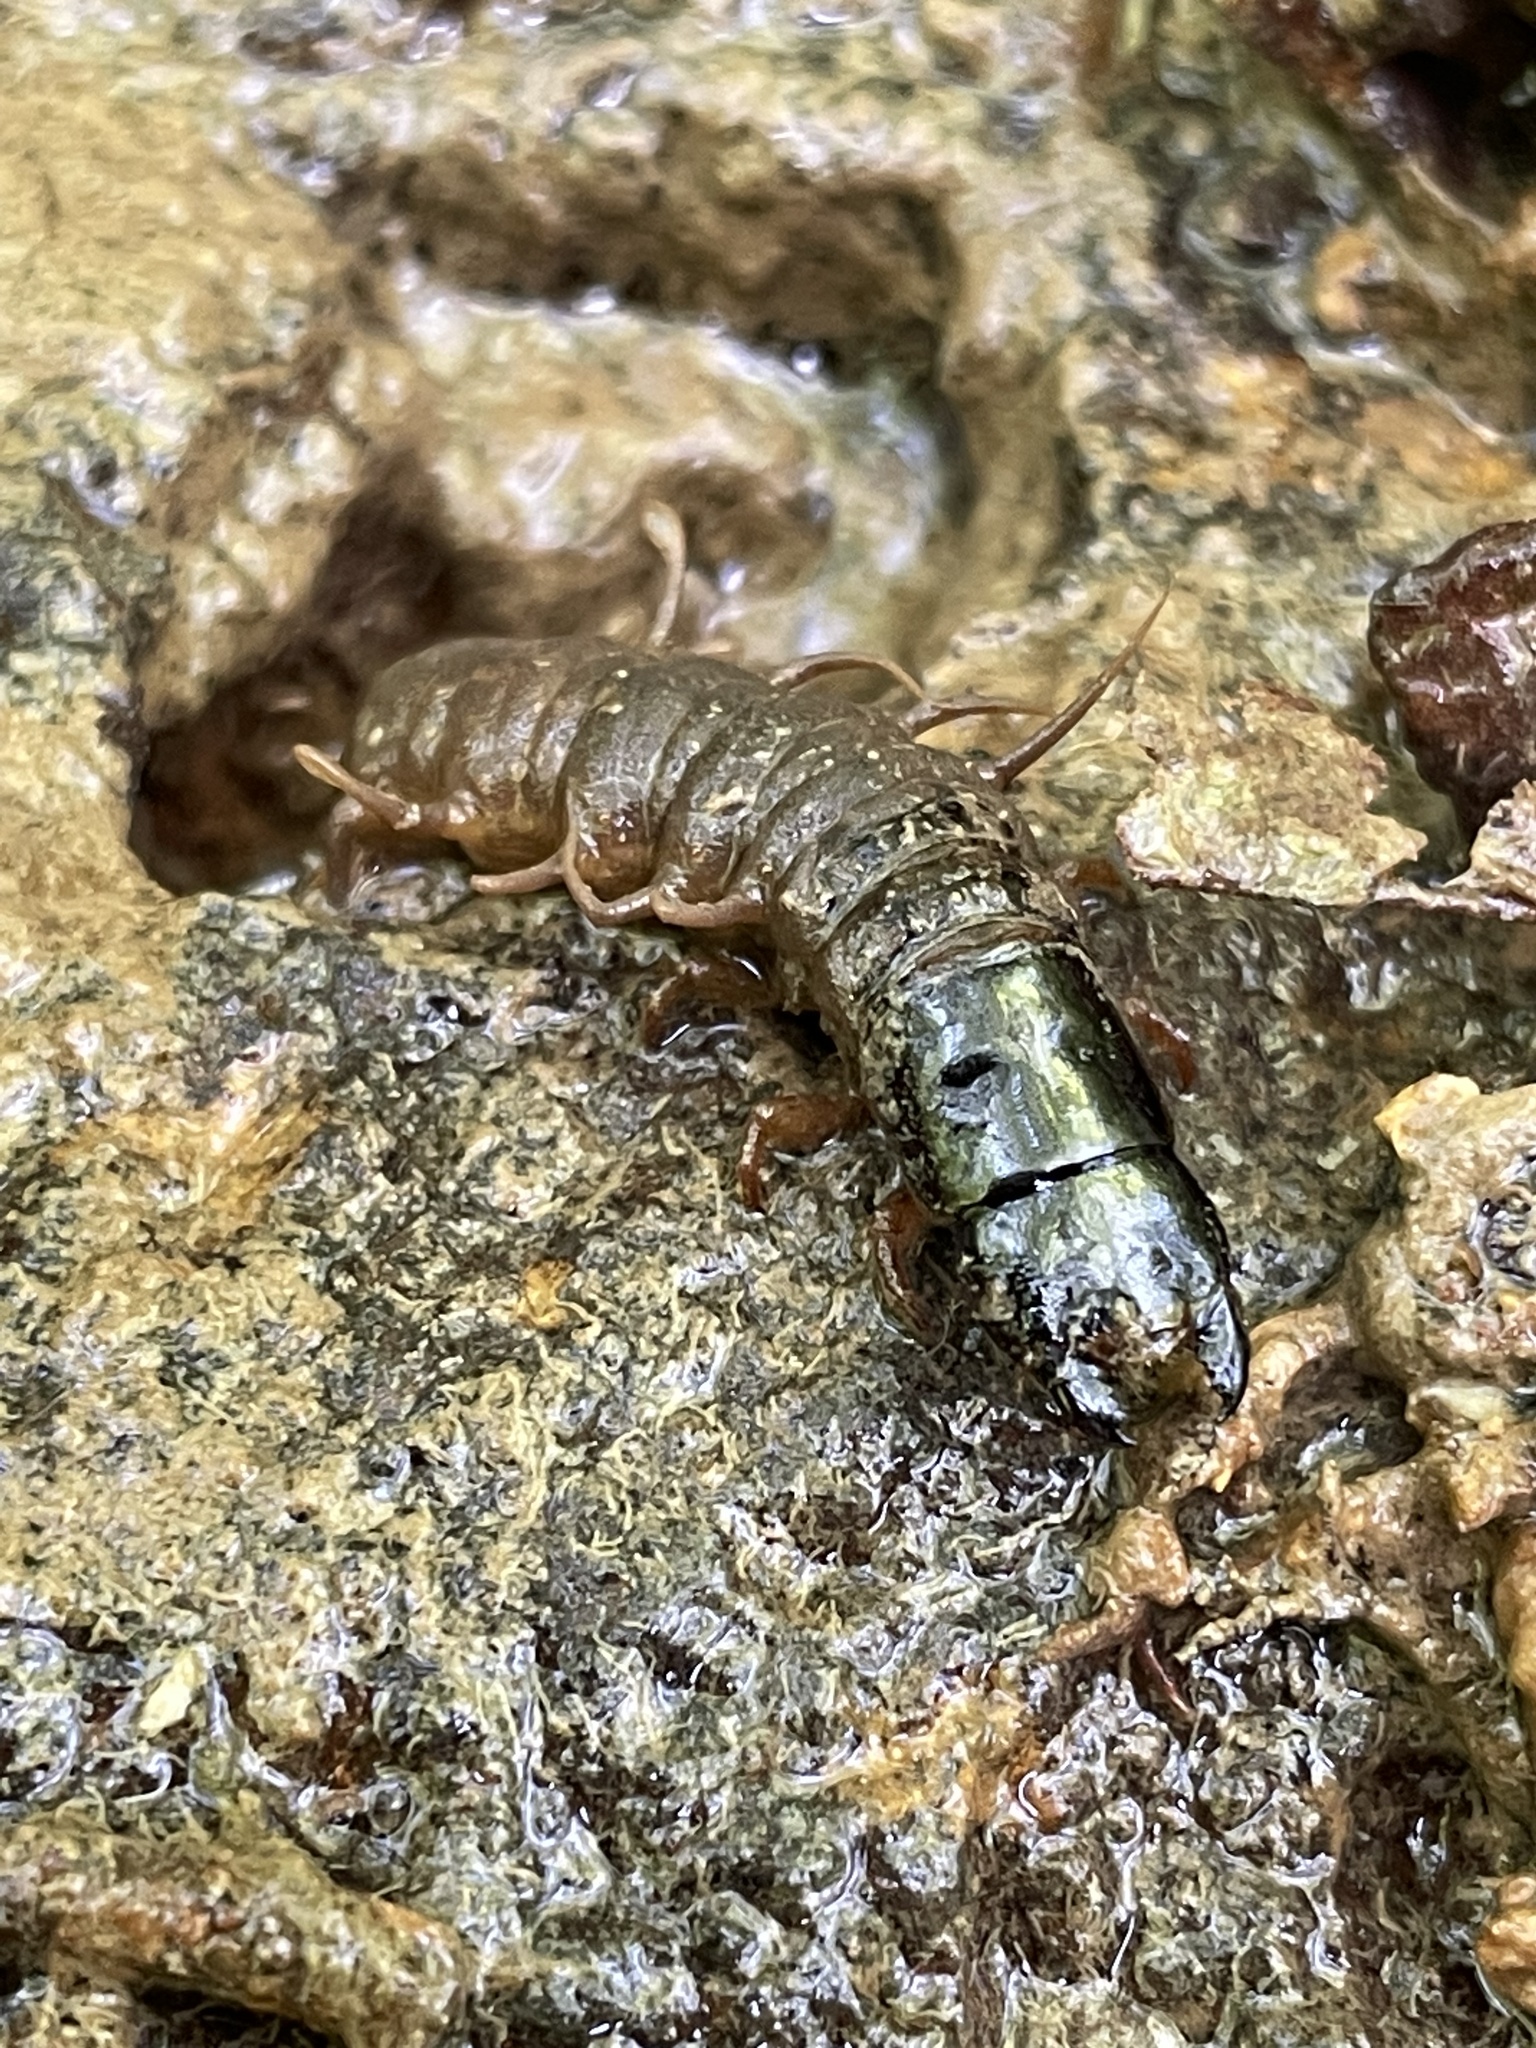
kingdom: Animalia
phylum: Arthropoda
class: Insecta
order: Megaloptera
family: Corydalidae
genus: Nigronia
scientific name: Nigronia
